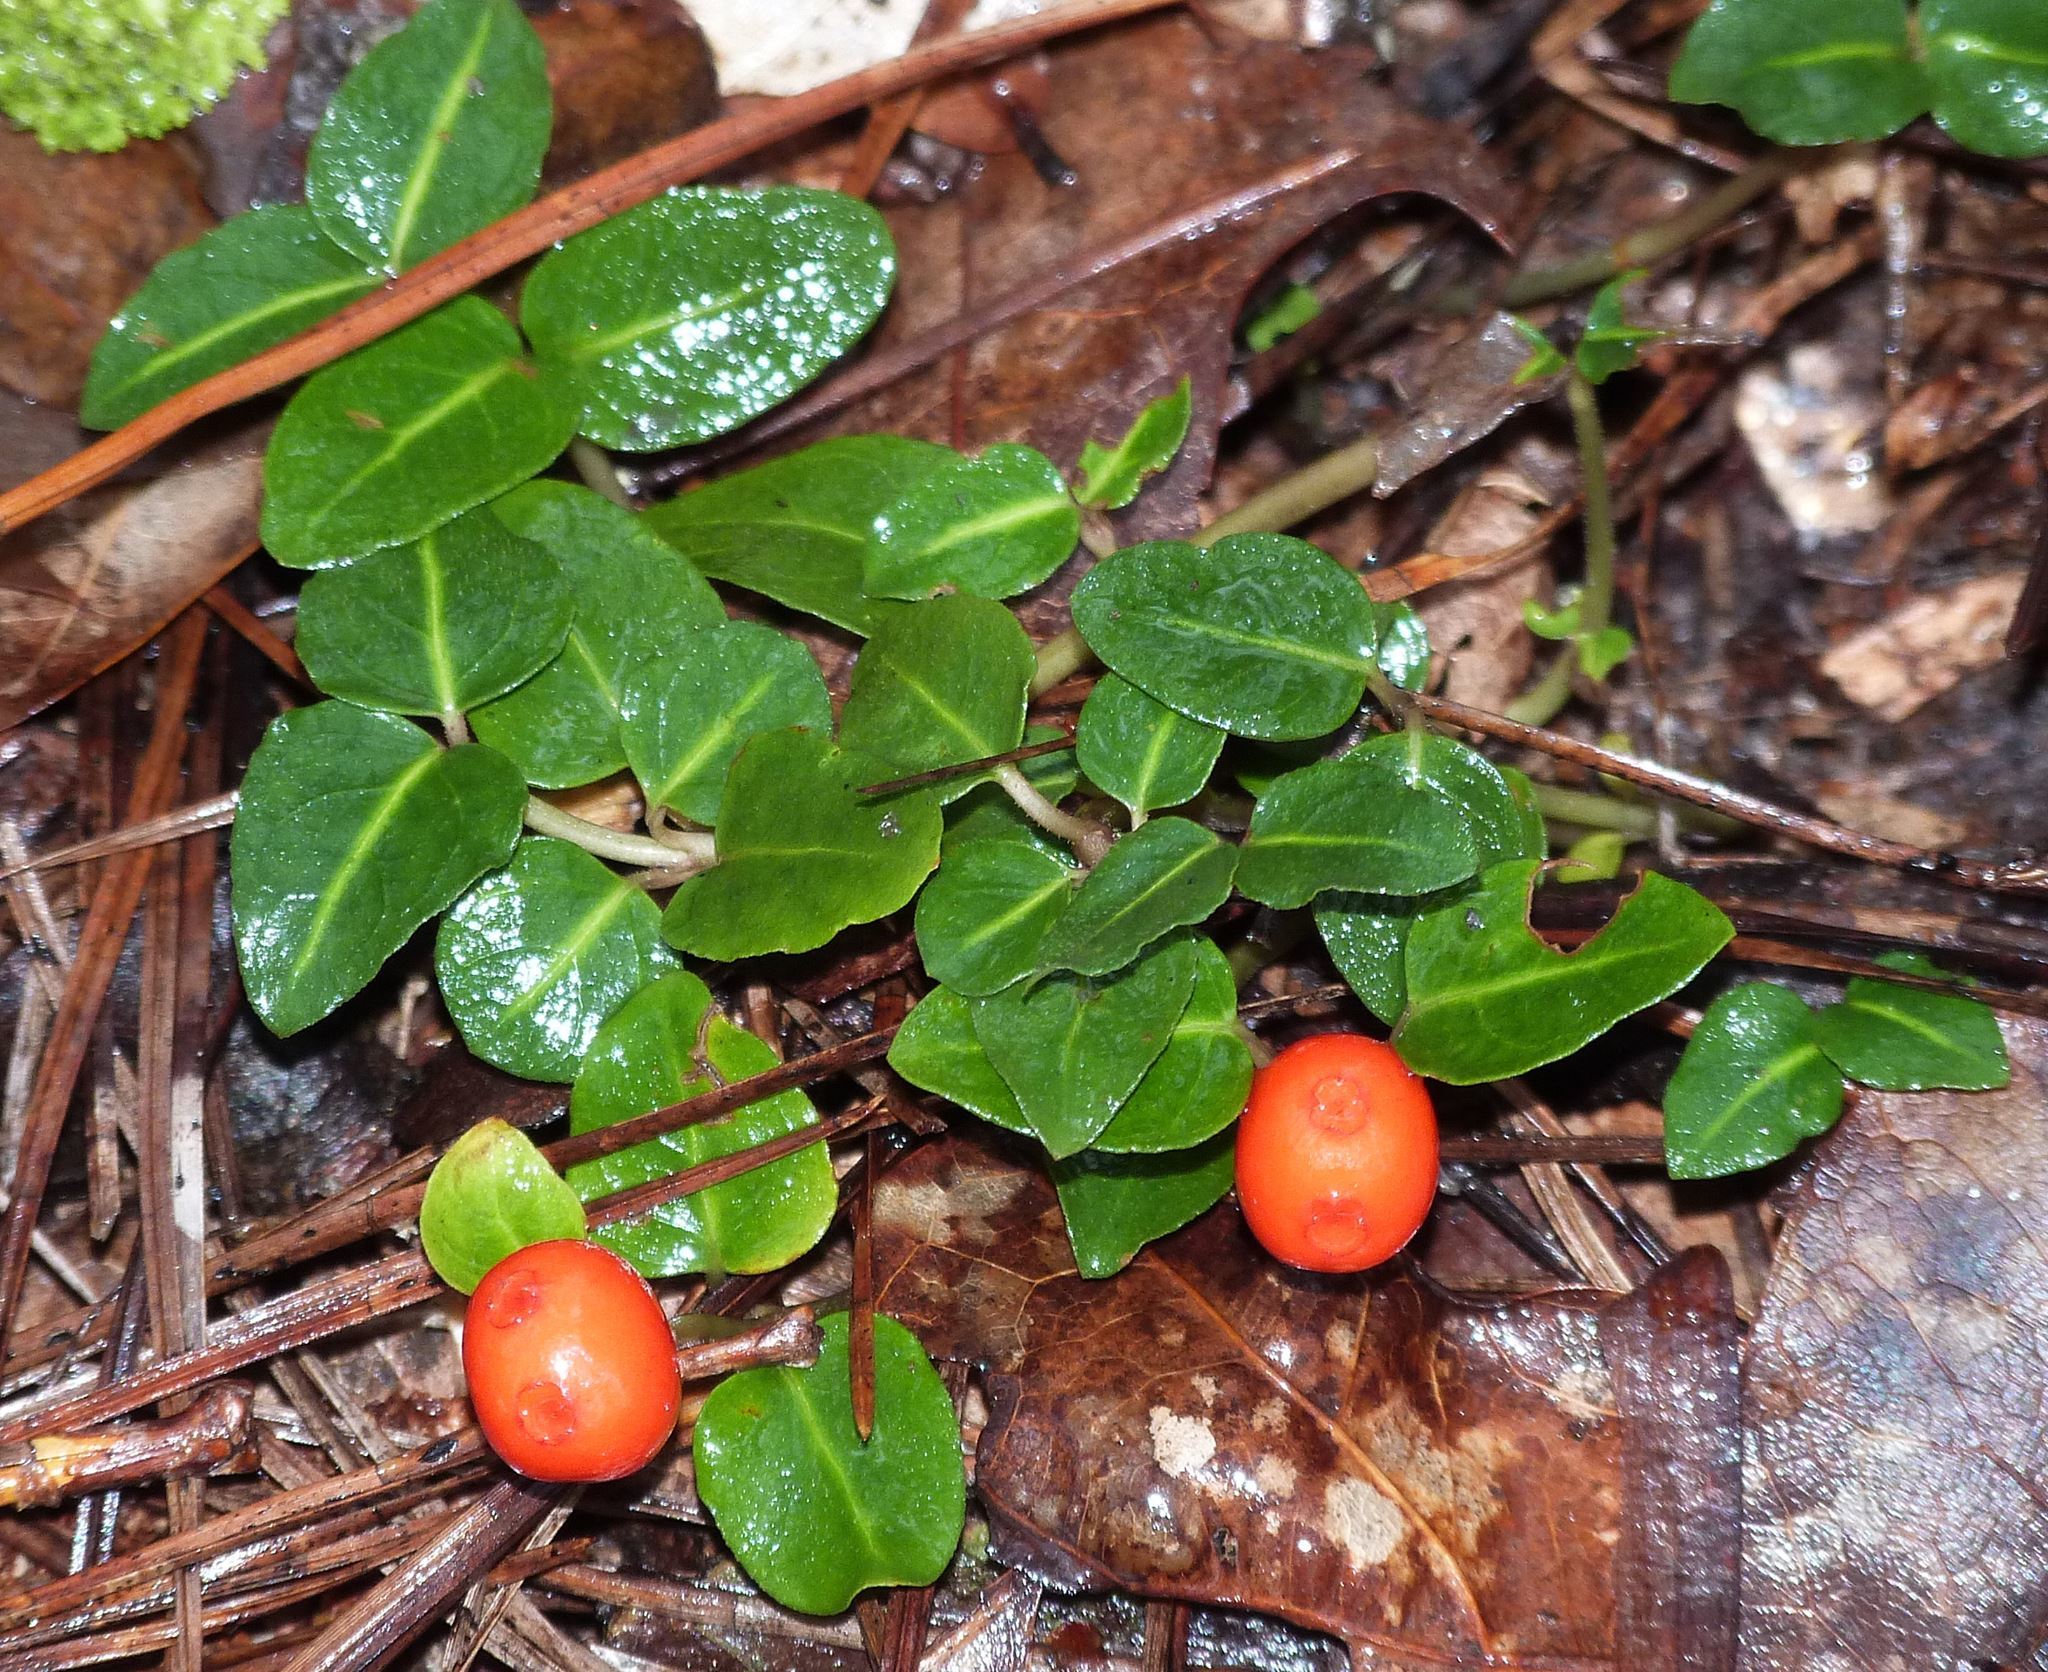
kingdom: Plantae
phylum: Tracheophyta
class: Magnoliopsida
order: Gentianales
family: Rubiaceae
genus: Mitchella
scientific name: Mitchella repens
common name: Partridge-berry
